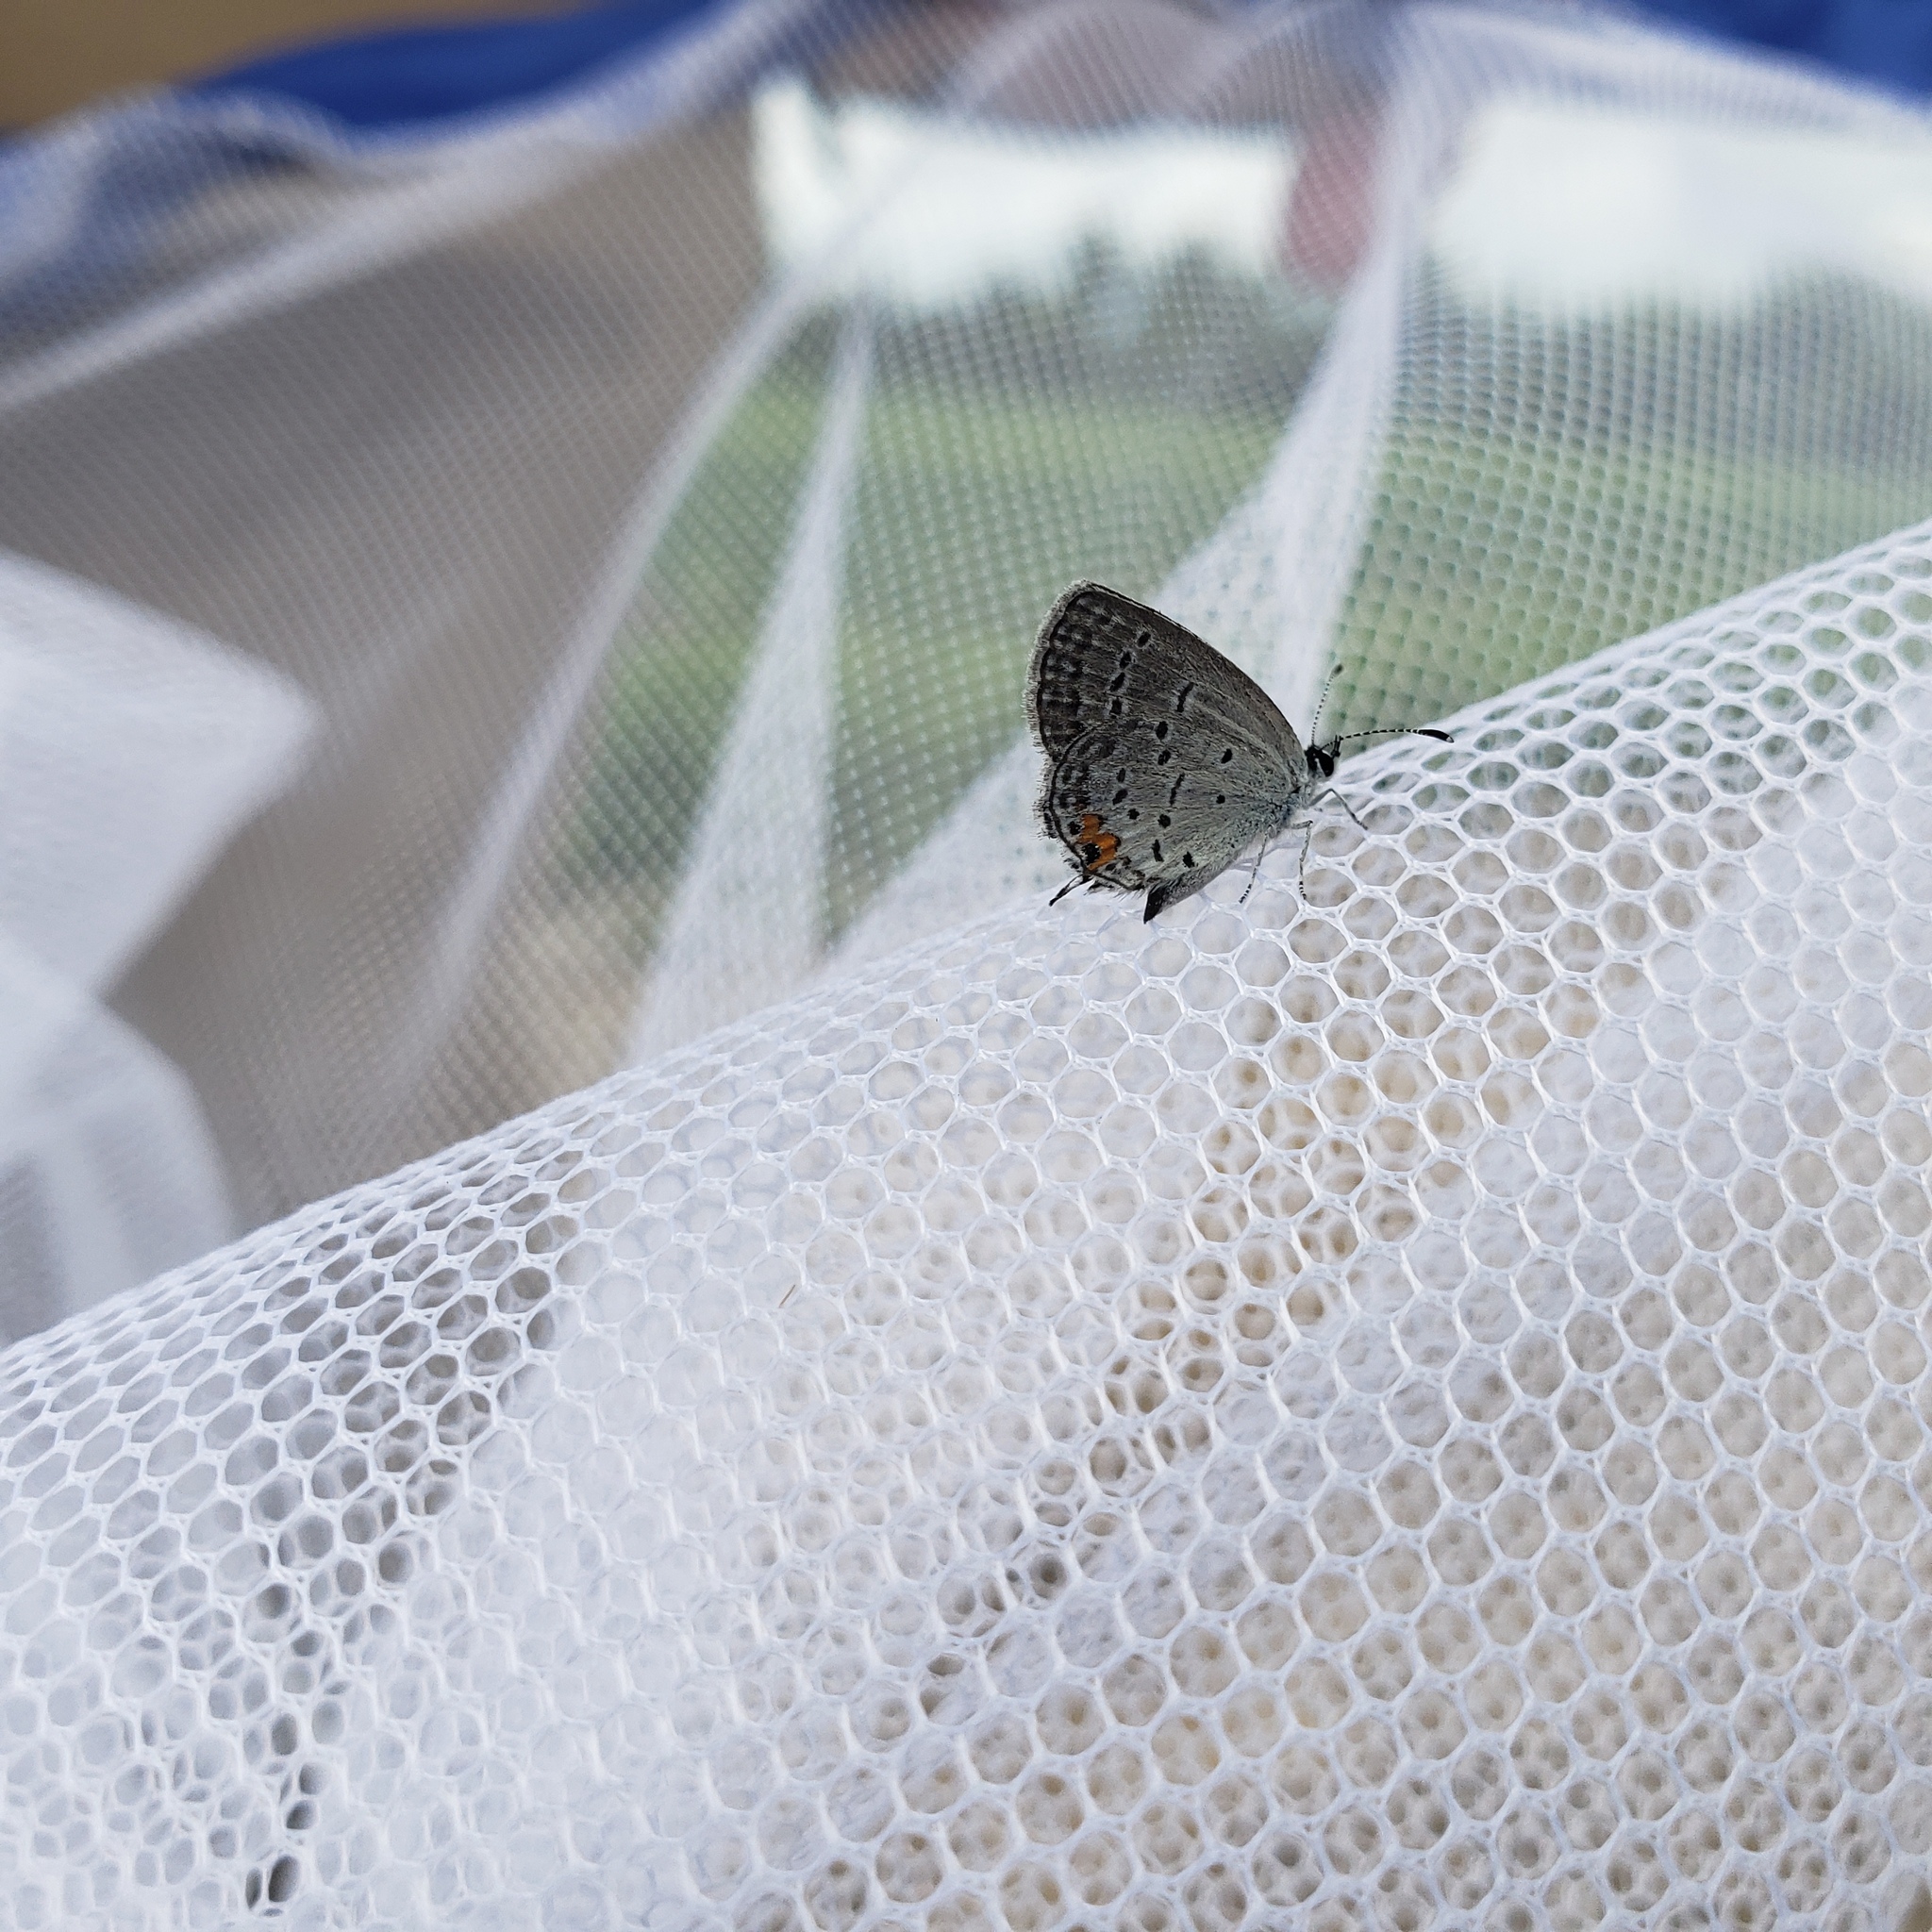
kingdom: Animalia
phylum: Arthropoda
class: Insecta
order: Lepidoptera
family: Lycaenidae
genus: Elkalyce
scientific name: Elkalyce comyntas
